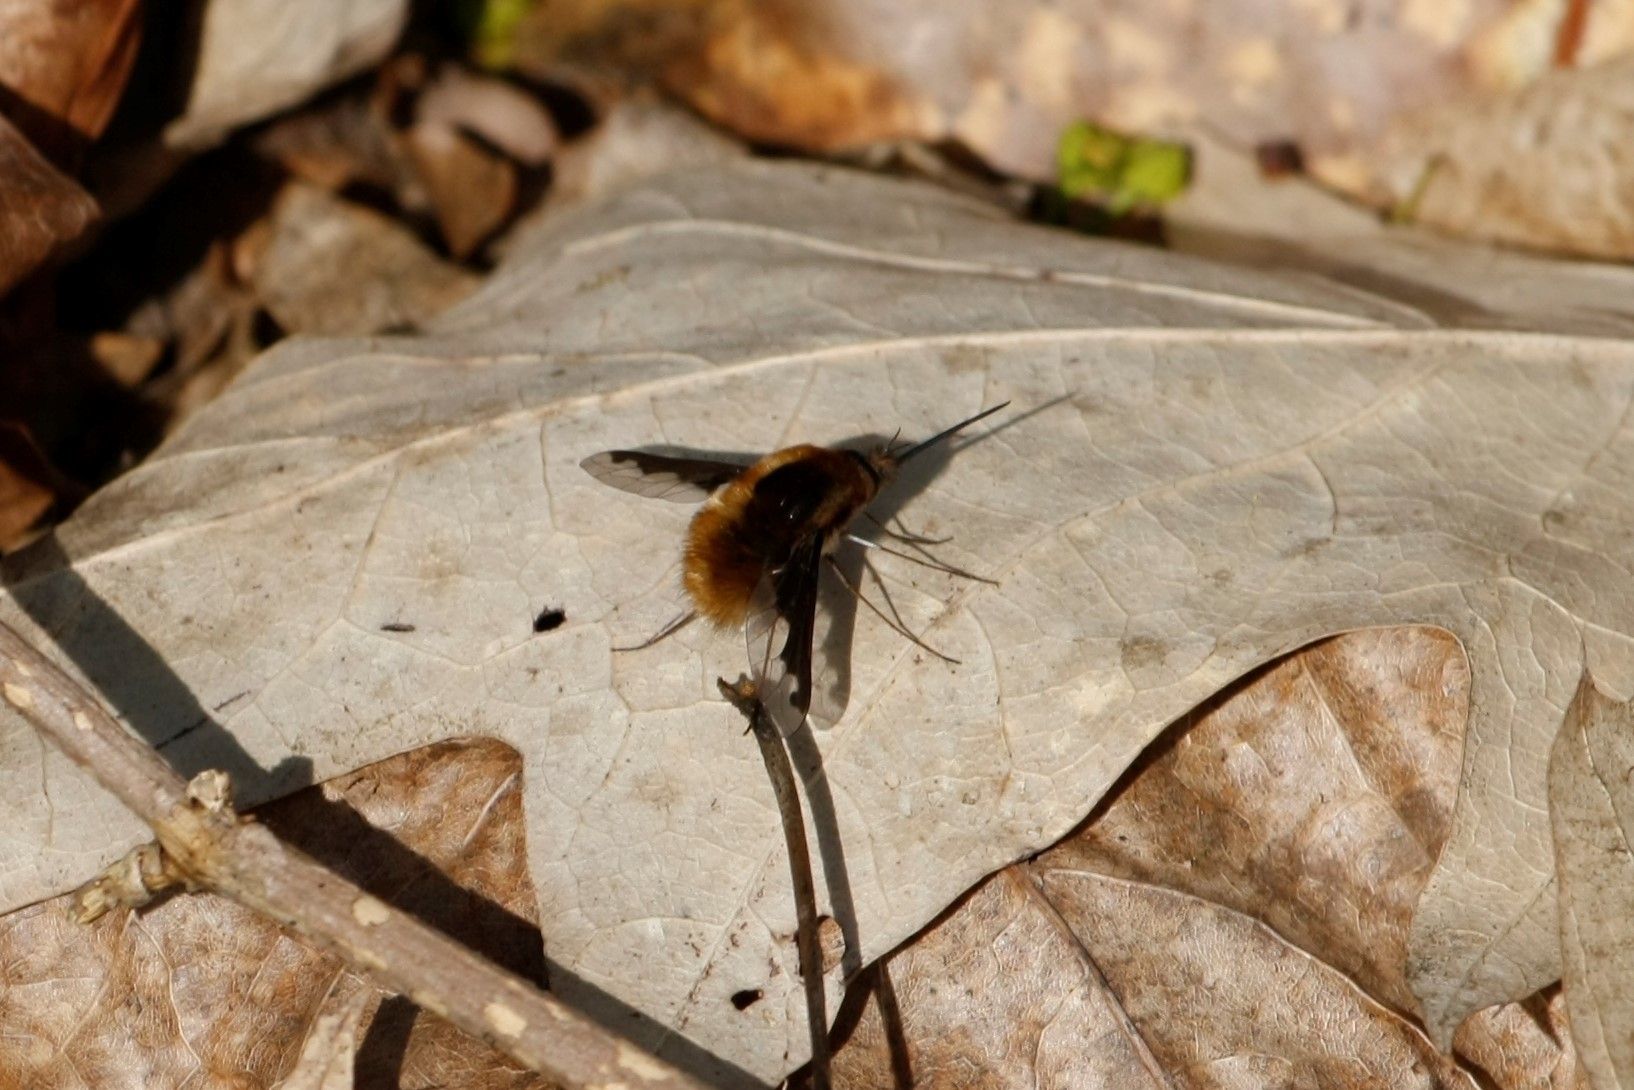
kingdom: Animalia
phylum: Arthropoda
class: Insecta
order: Diptera
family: Bombyliidae
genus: Bombylius
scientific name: Bombylius major
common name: Bee fly
